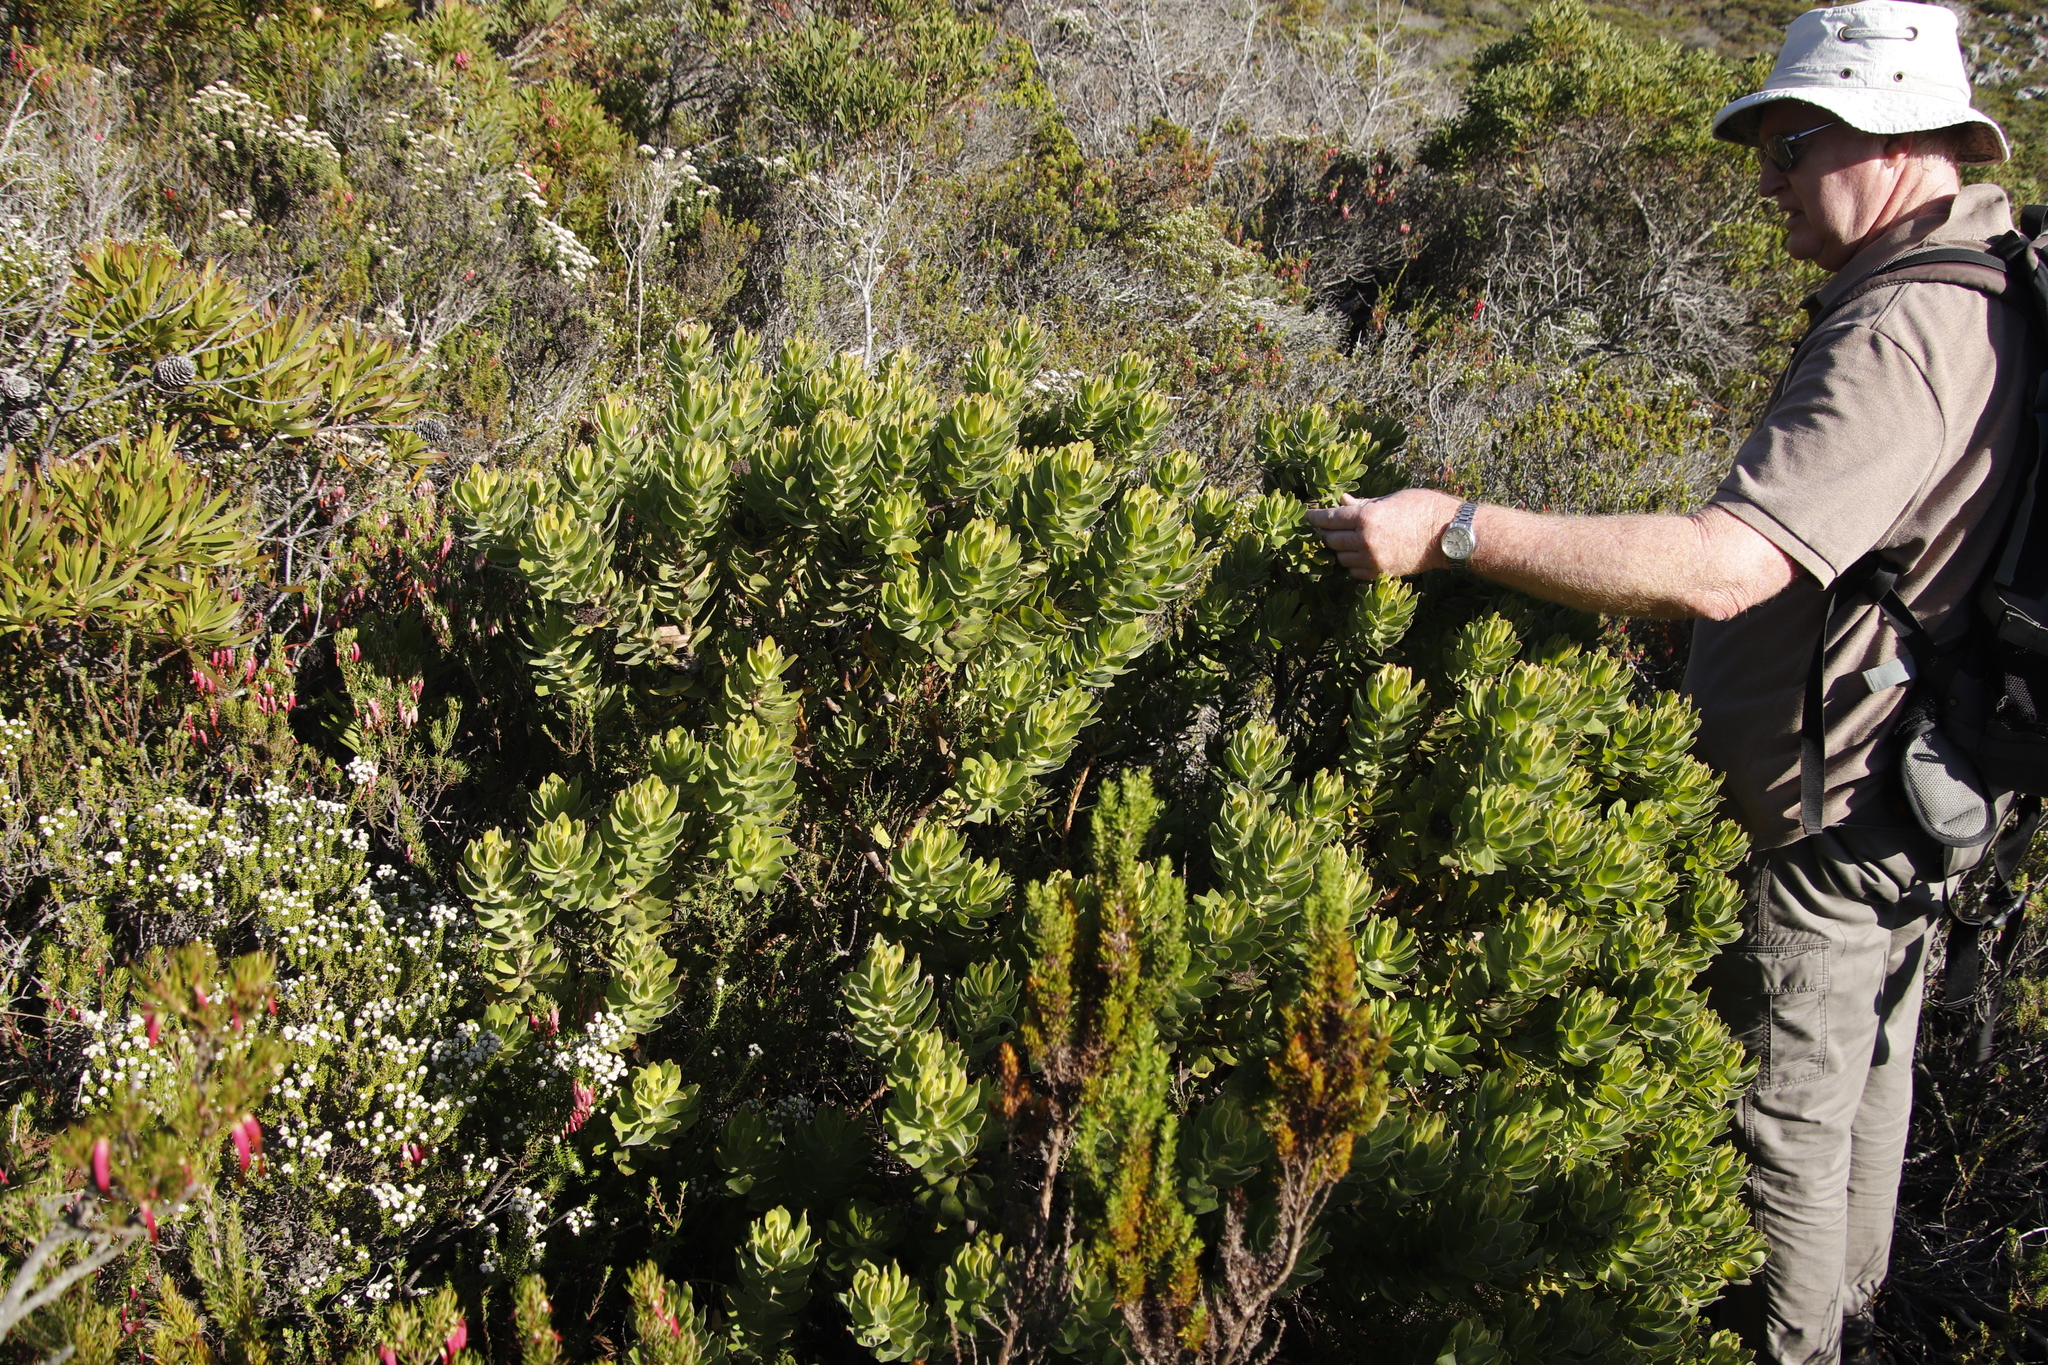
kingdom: Plantae
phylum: Tracheophyta
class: Magnoliopsida
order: Proteales
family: Proteaceae
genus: Leucospermum
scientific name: Leucospermum oleifolium
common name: Matches
